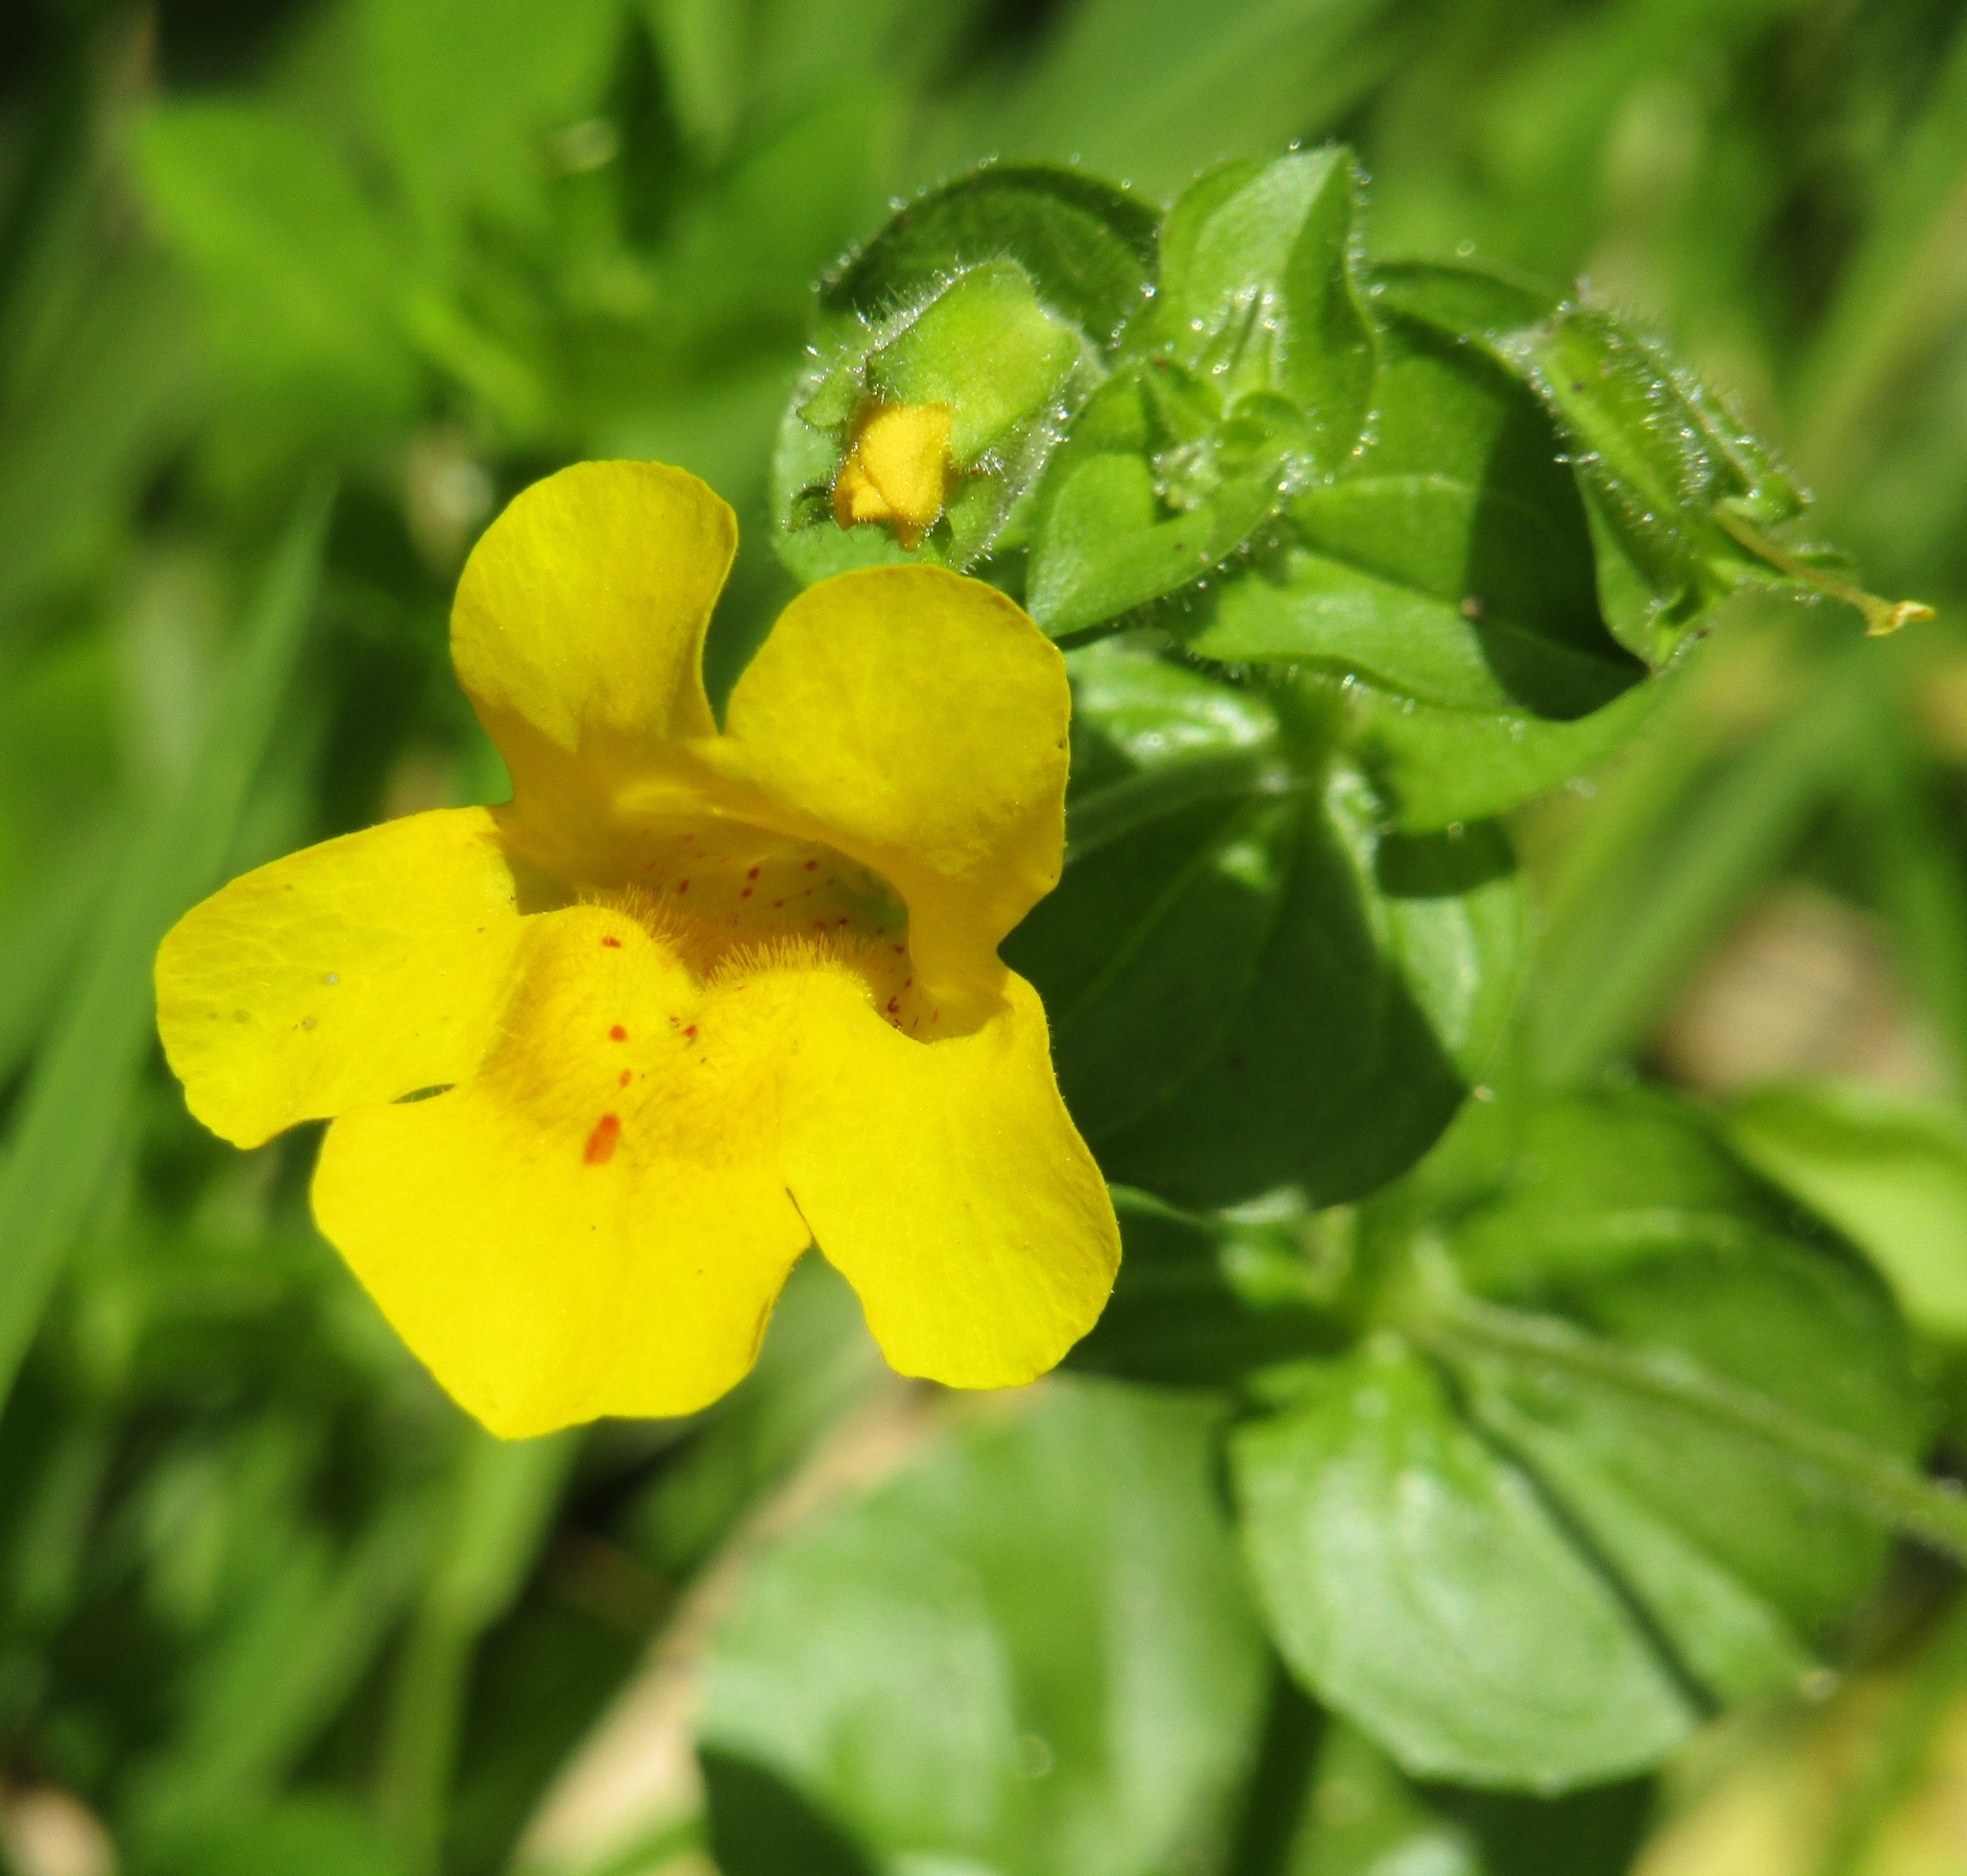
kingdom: Plantae
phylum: Tracheophyta
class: Magnoliopsida
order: Lamiales
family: Phrymaceae
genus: Erythranthe
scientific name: Erythranthe guttata
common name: Monkeyflower
